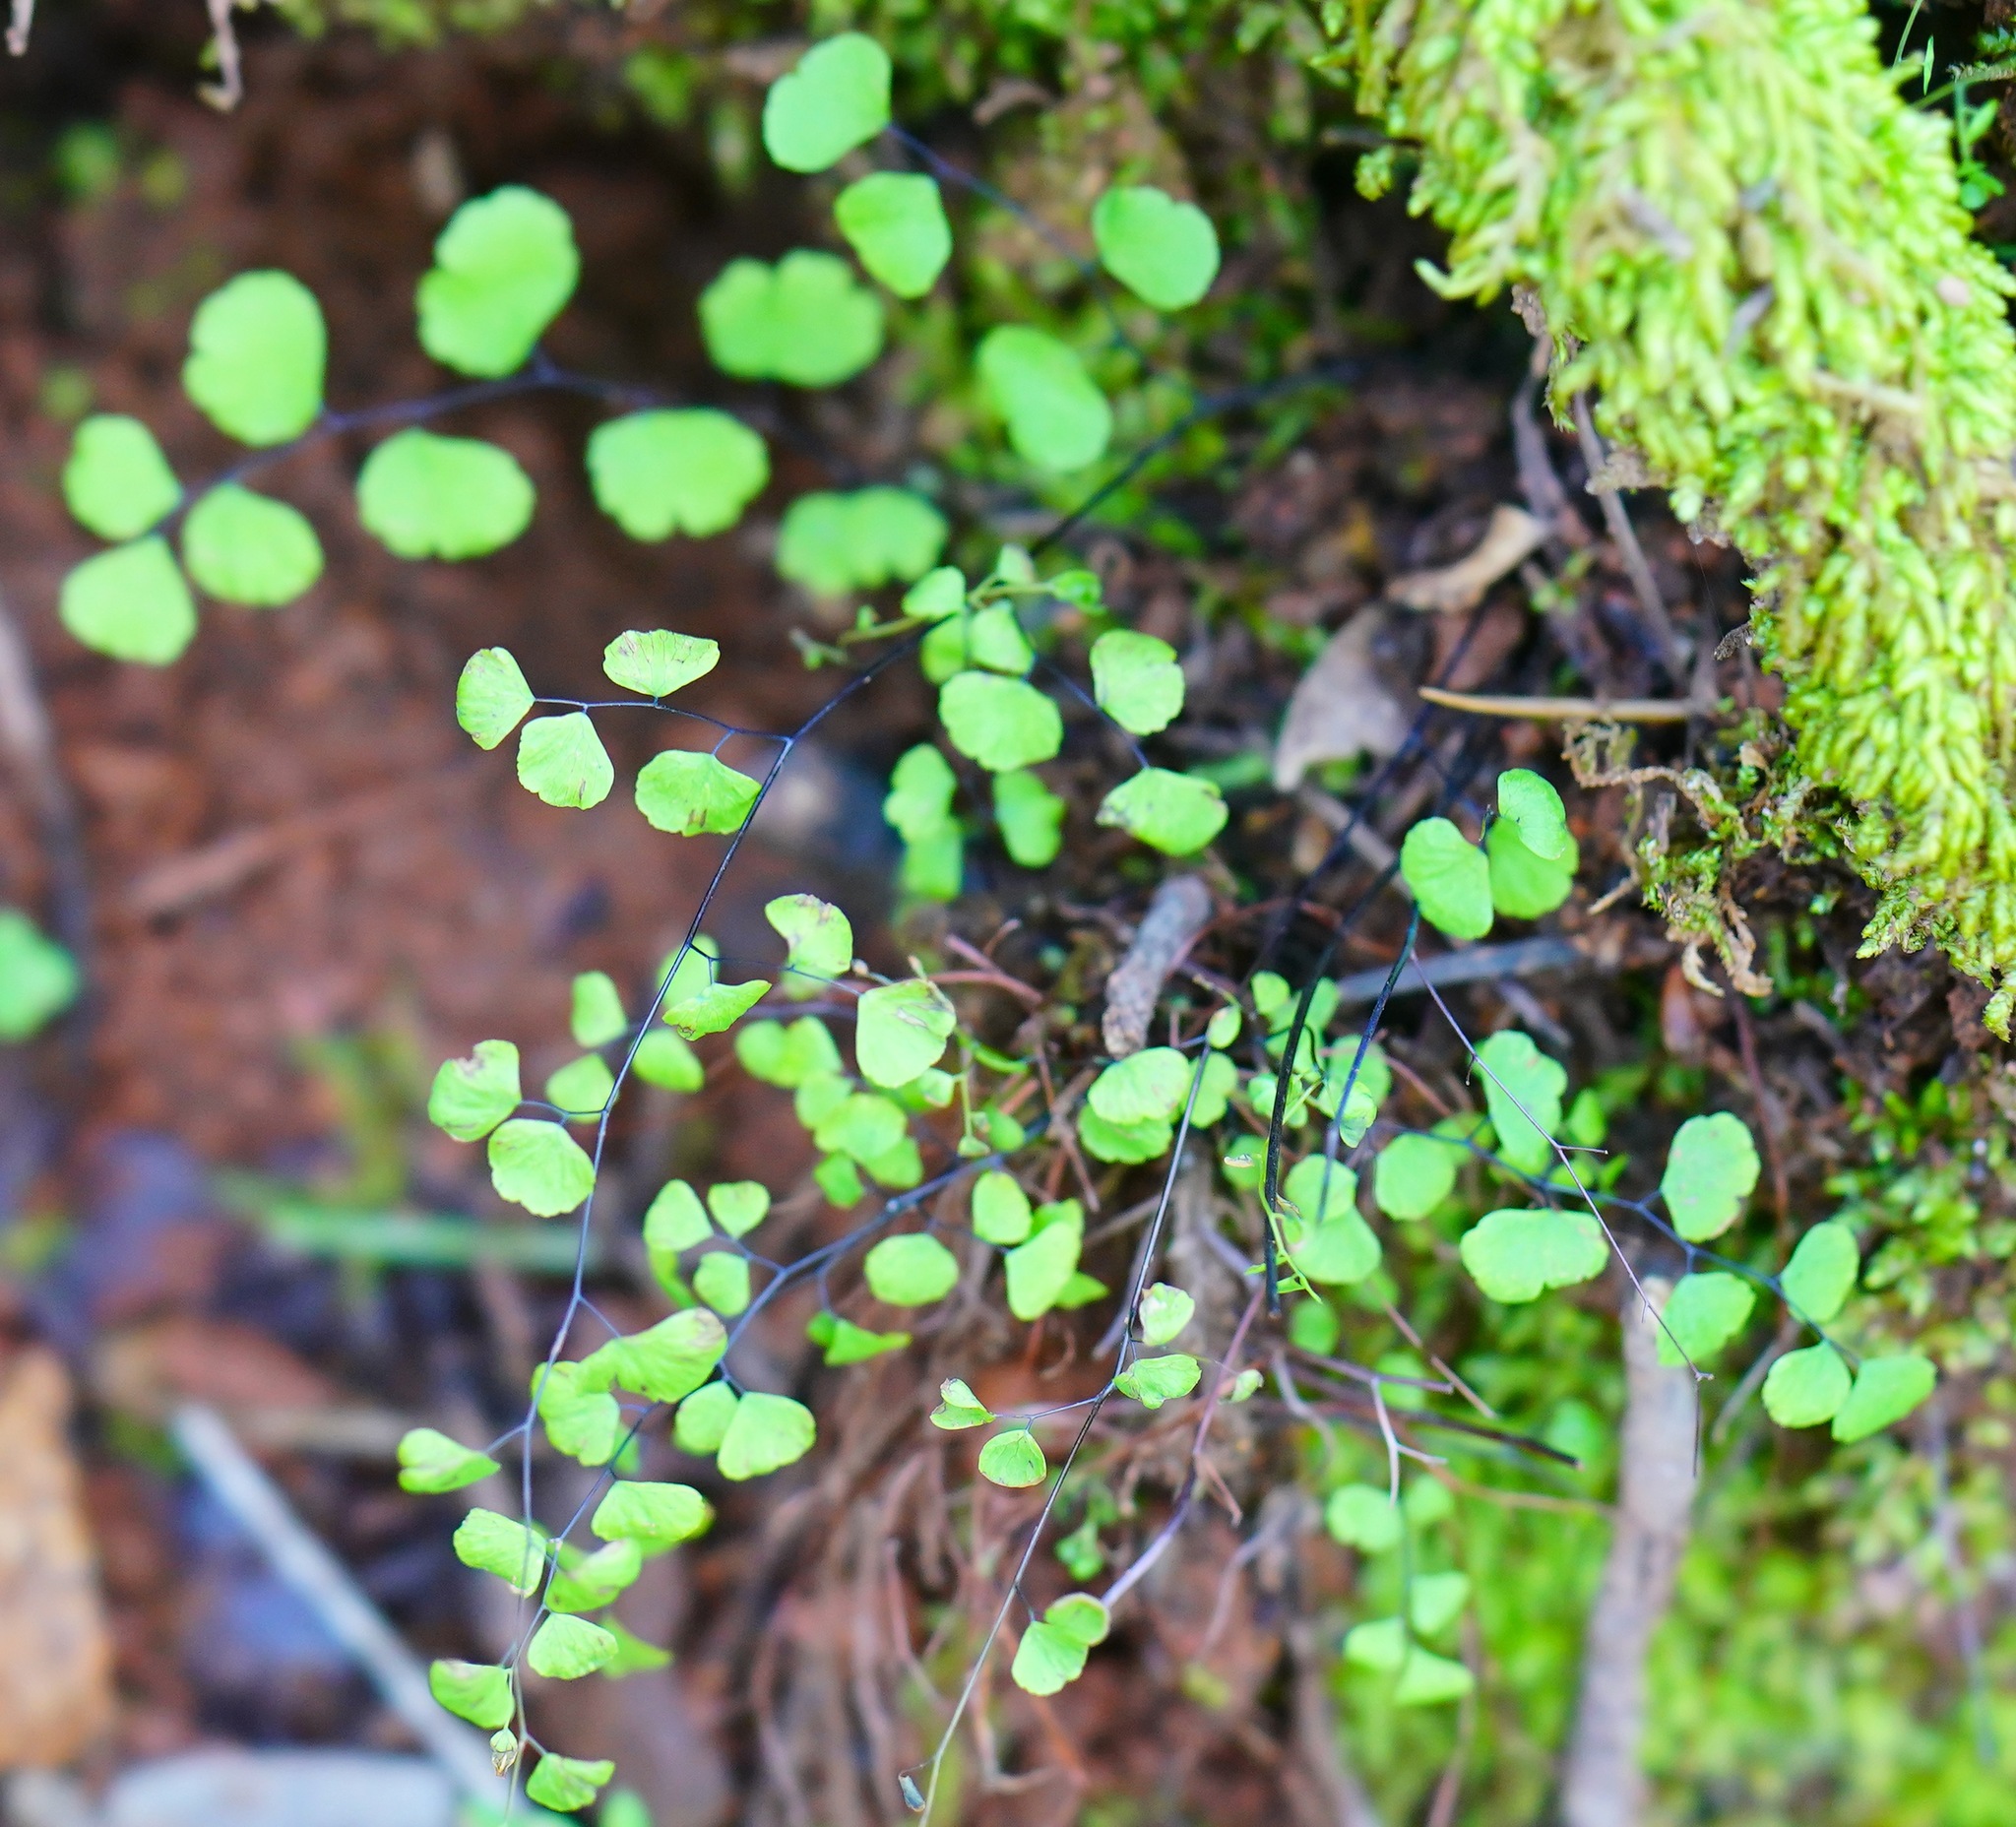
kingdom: Plantae
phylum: Tracheophyta
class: Polypodiopsida
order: Polypodiales
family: Pteridaceae
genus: Adiantum
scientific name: Adiantum jordanii
